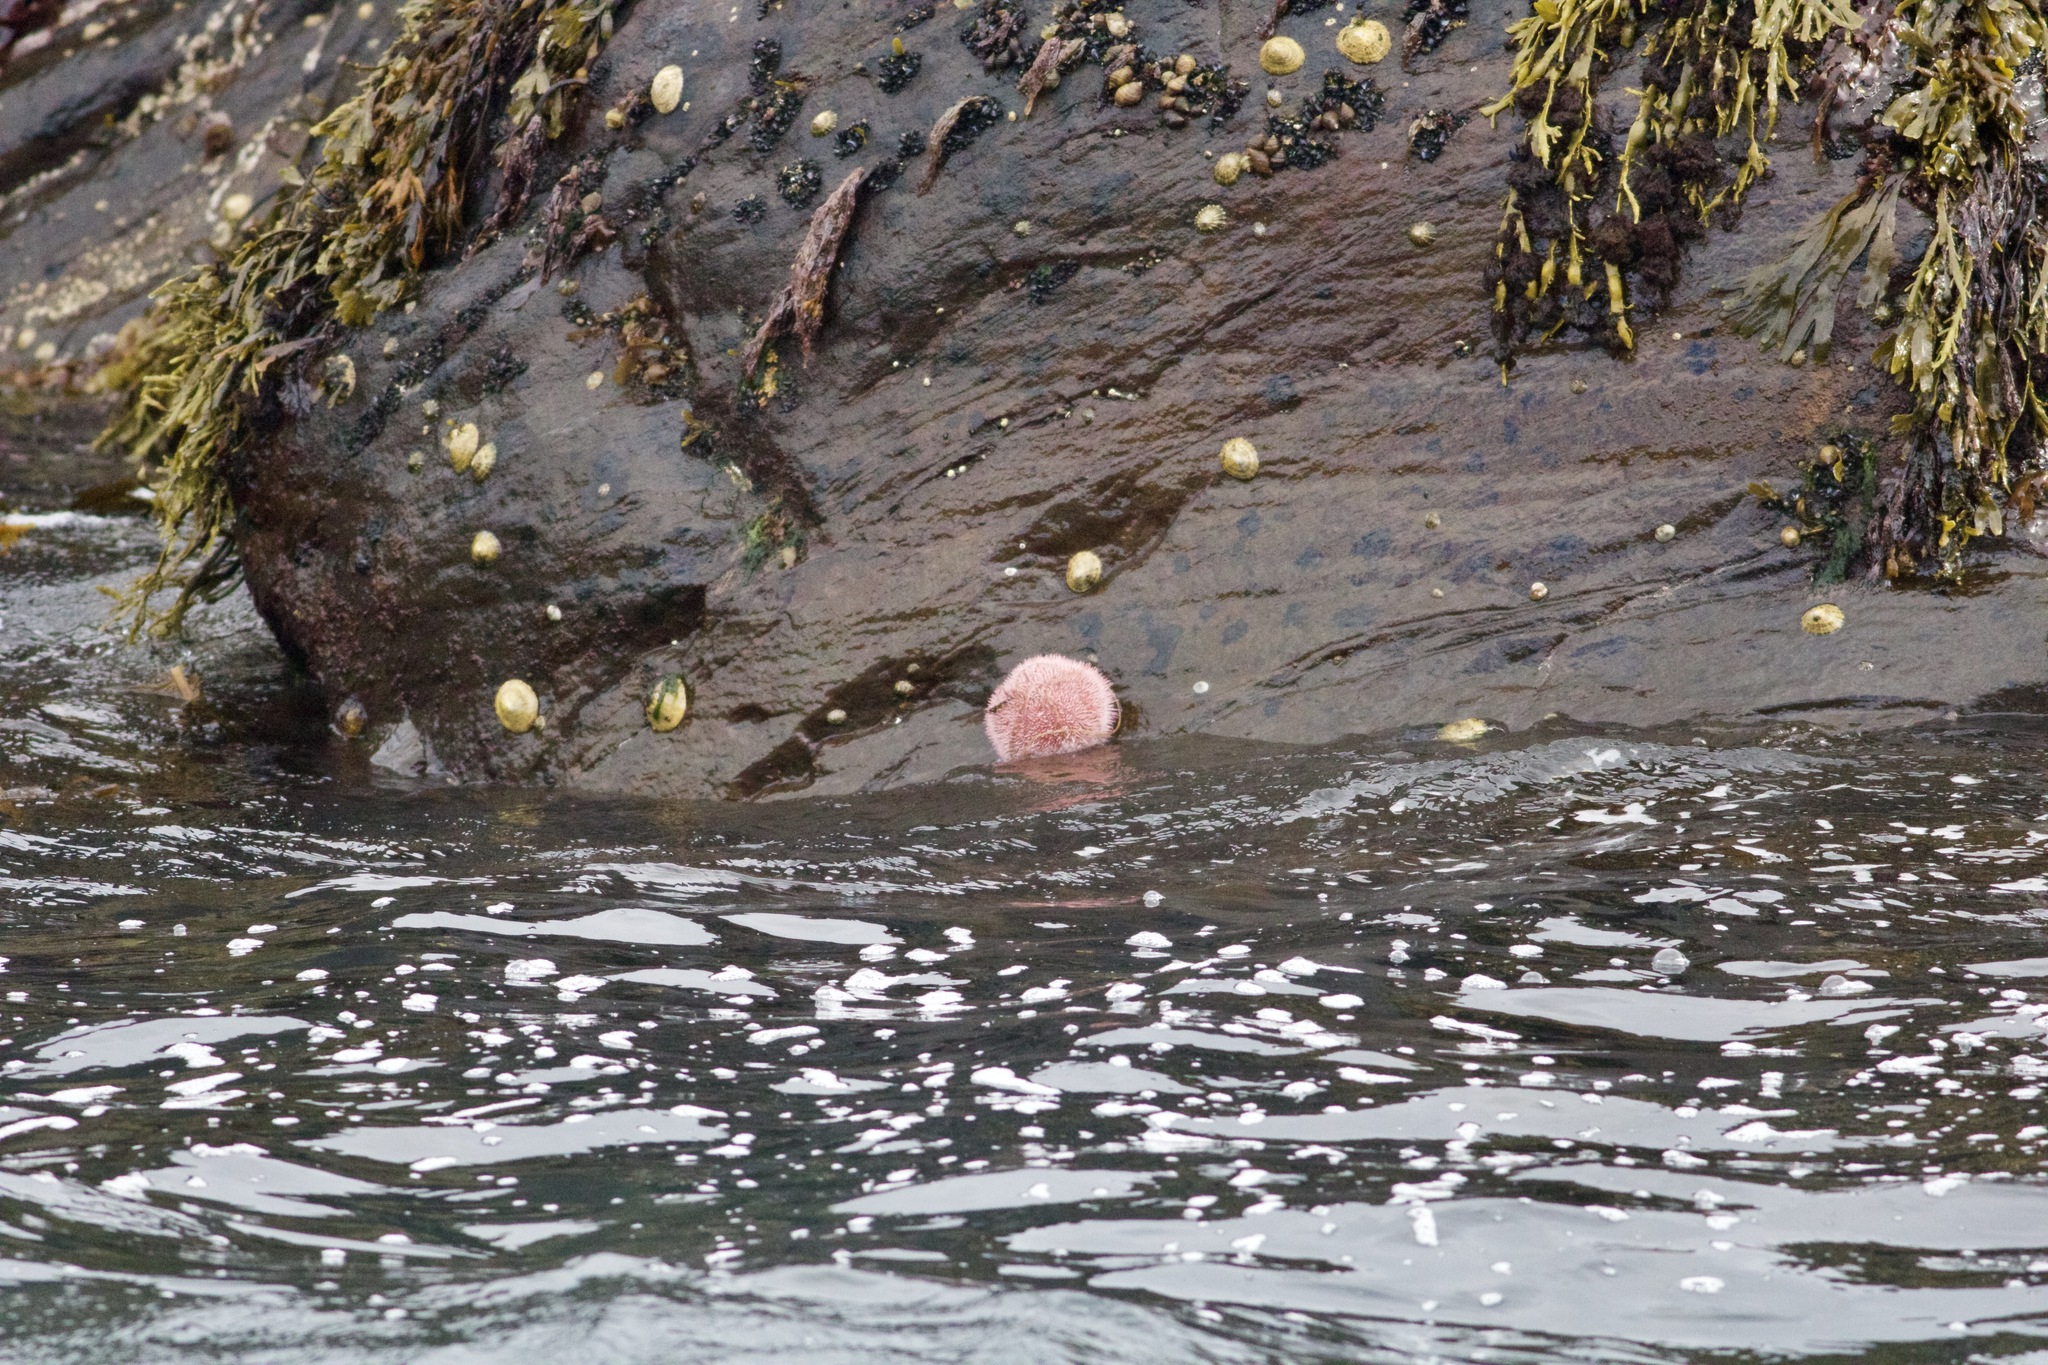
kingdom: Animalia
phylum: Echinodermata
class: Echinoidea
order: Camarodonta
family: Echinidae
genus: Echinus
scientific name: Echinus esculentus
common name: Edible sea urchin
